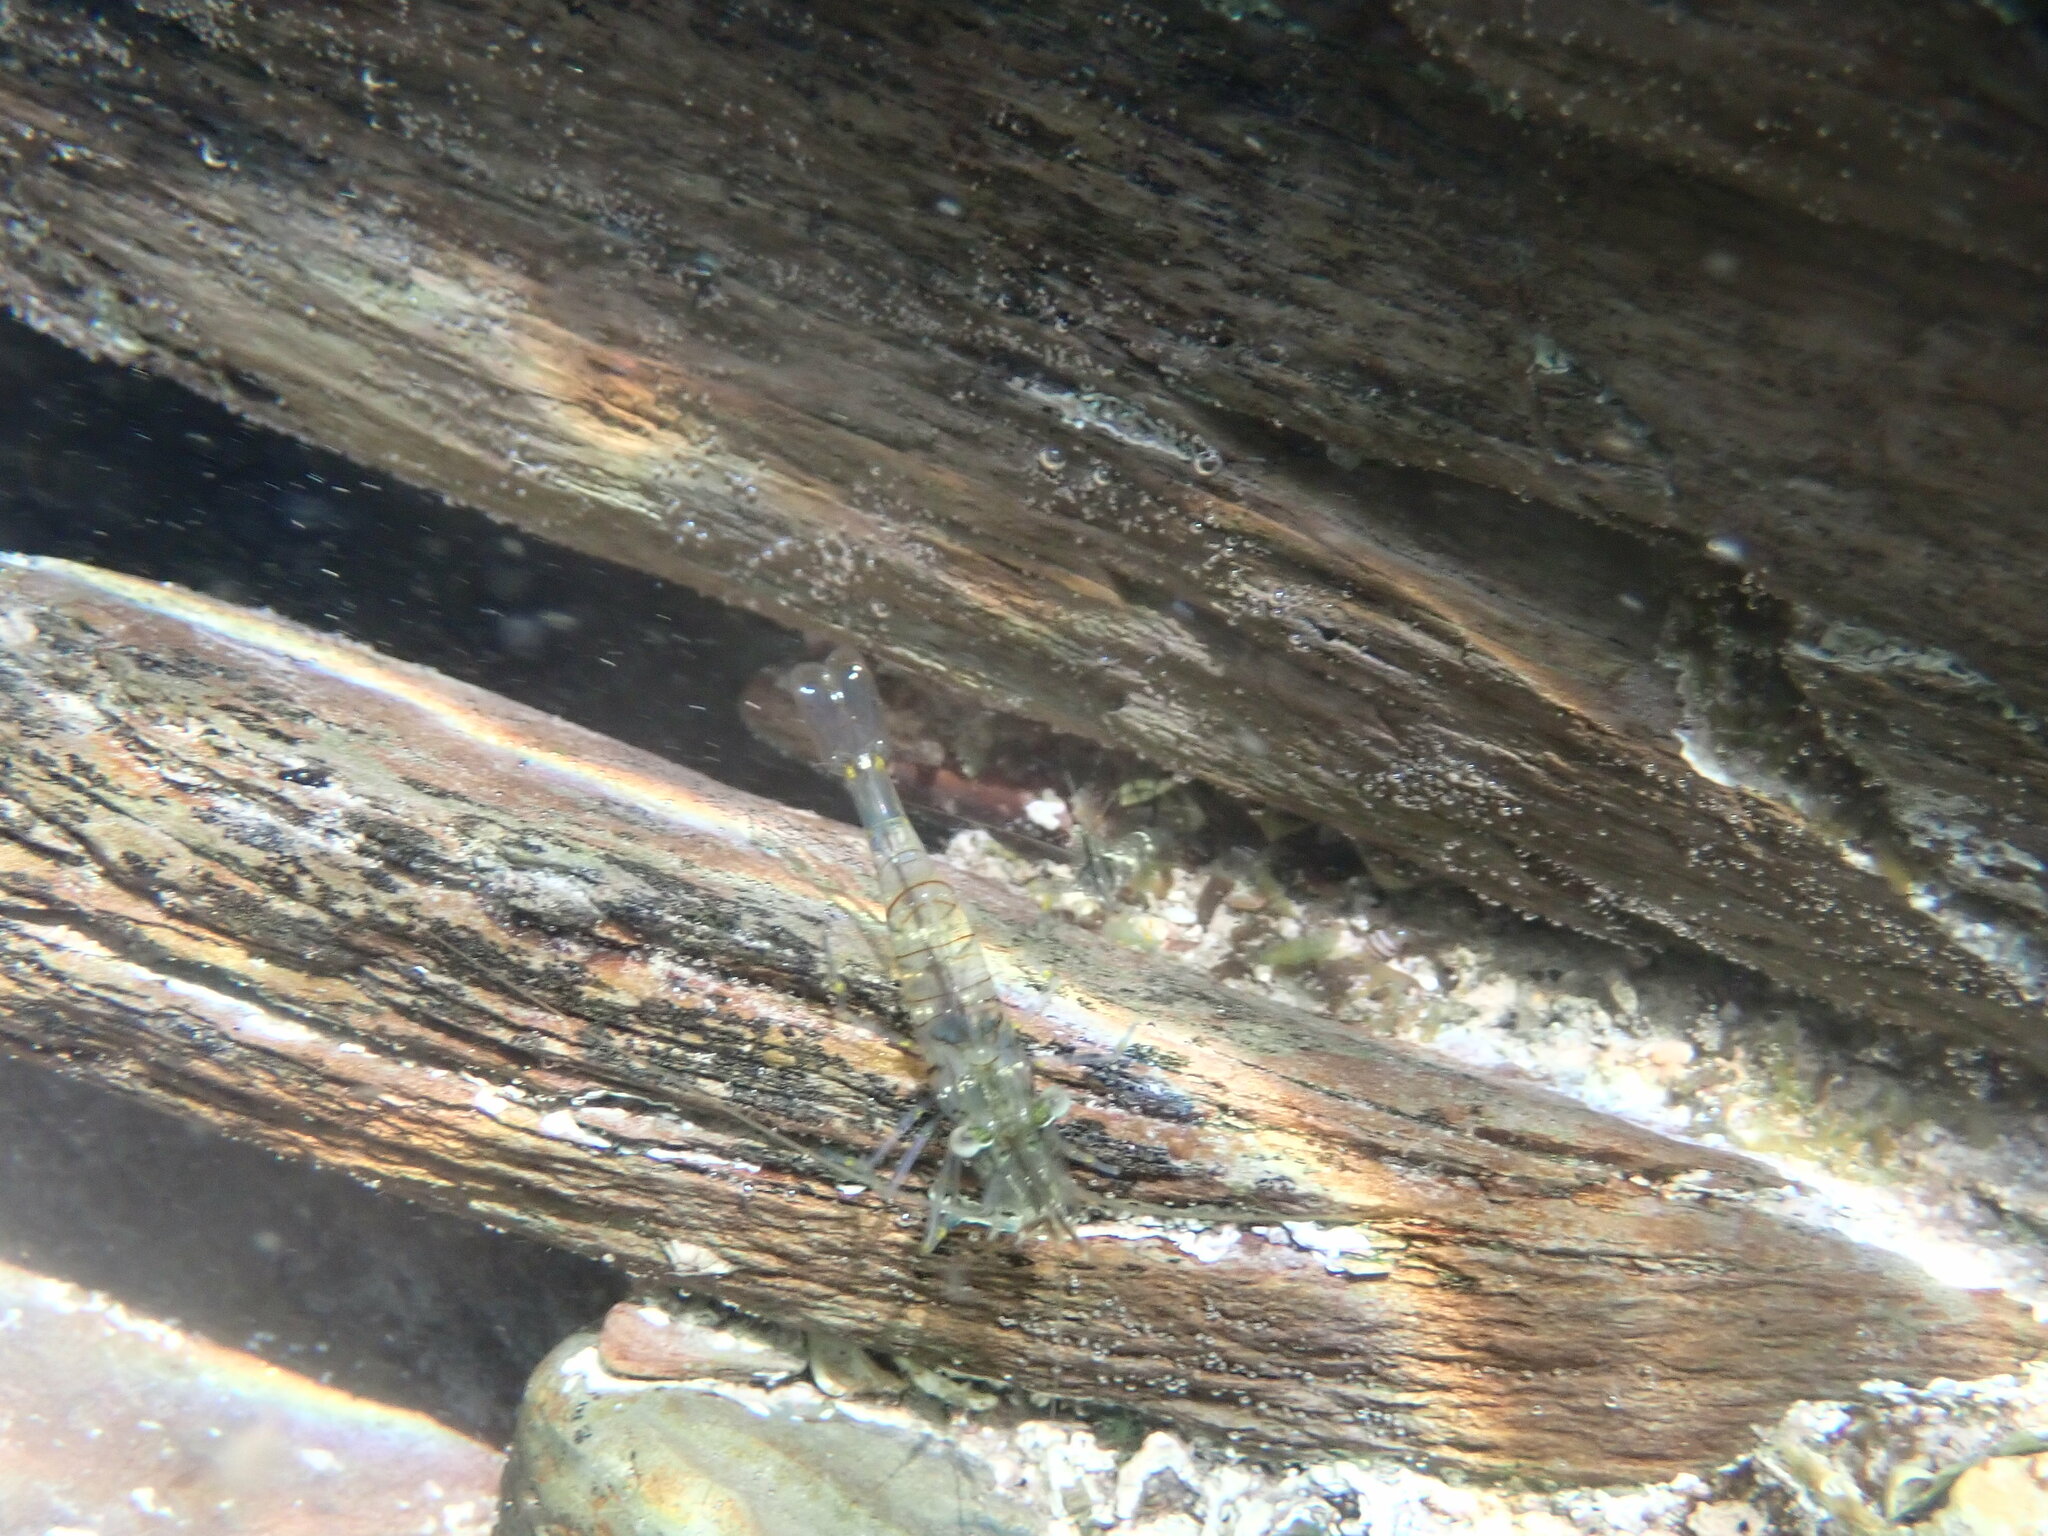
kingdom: Animalia
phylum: Arthropoda
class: Malacostraca
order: Decapoda
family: Palaemonidae
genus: Palaemon
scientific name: Palaemon elegans
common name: Grass prawm
